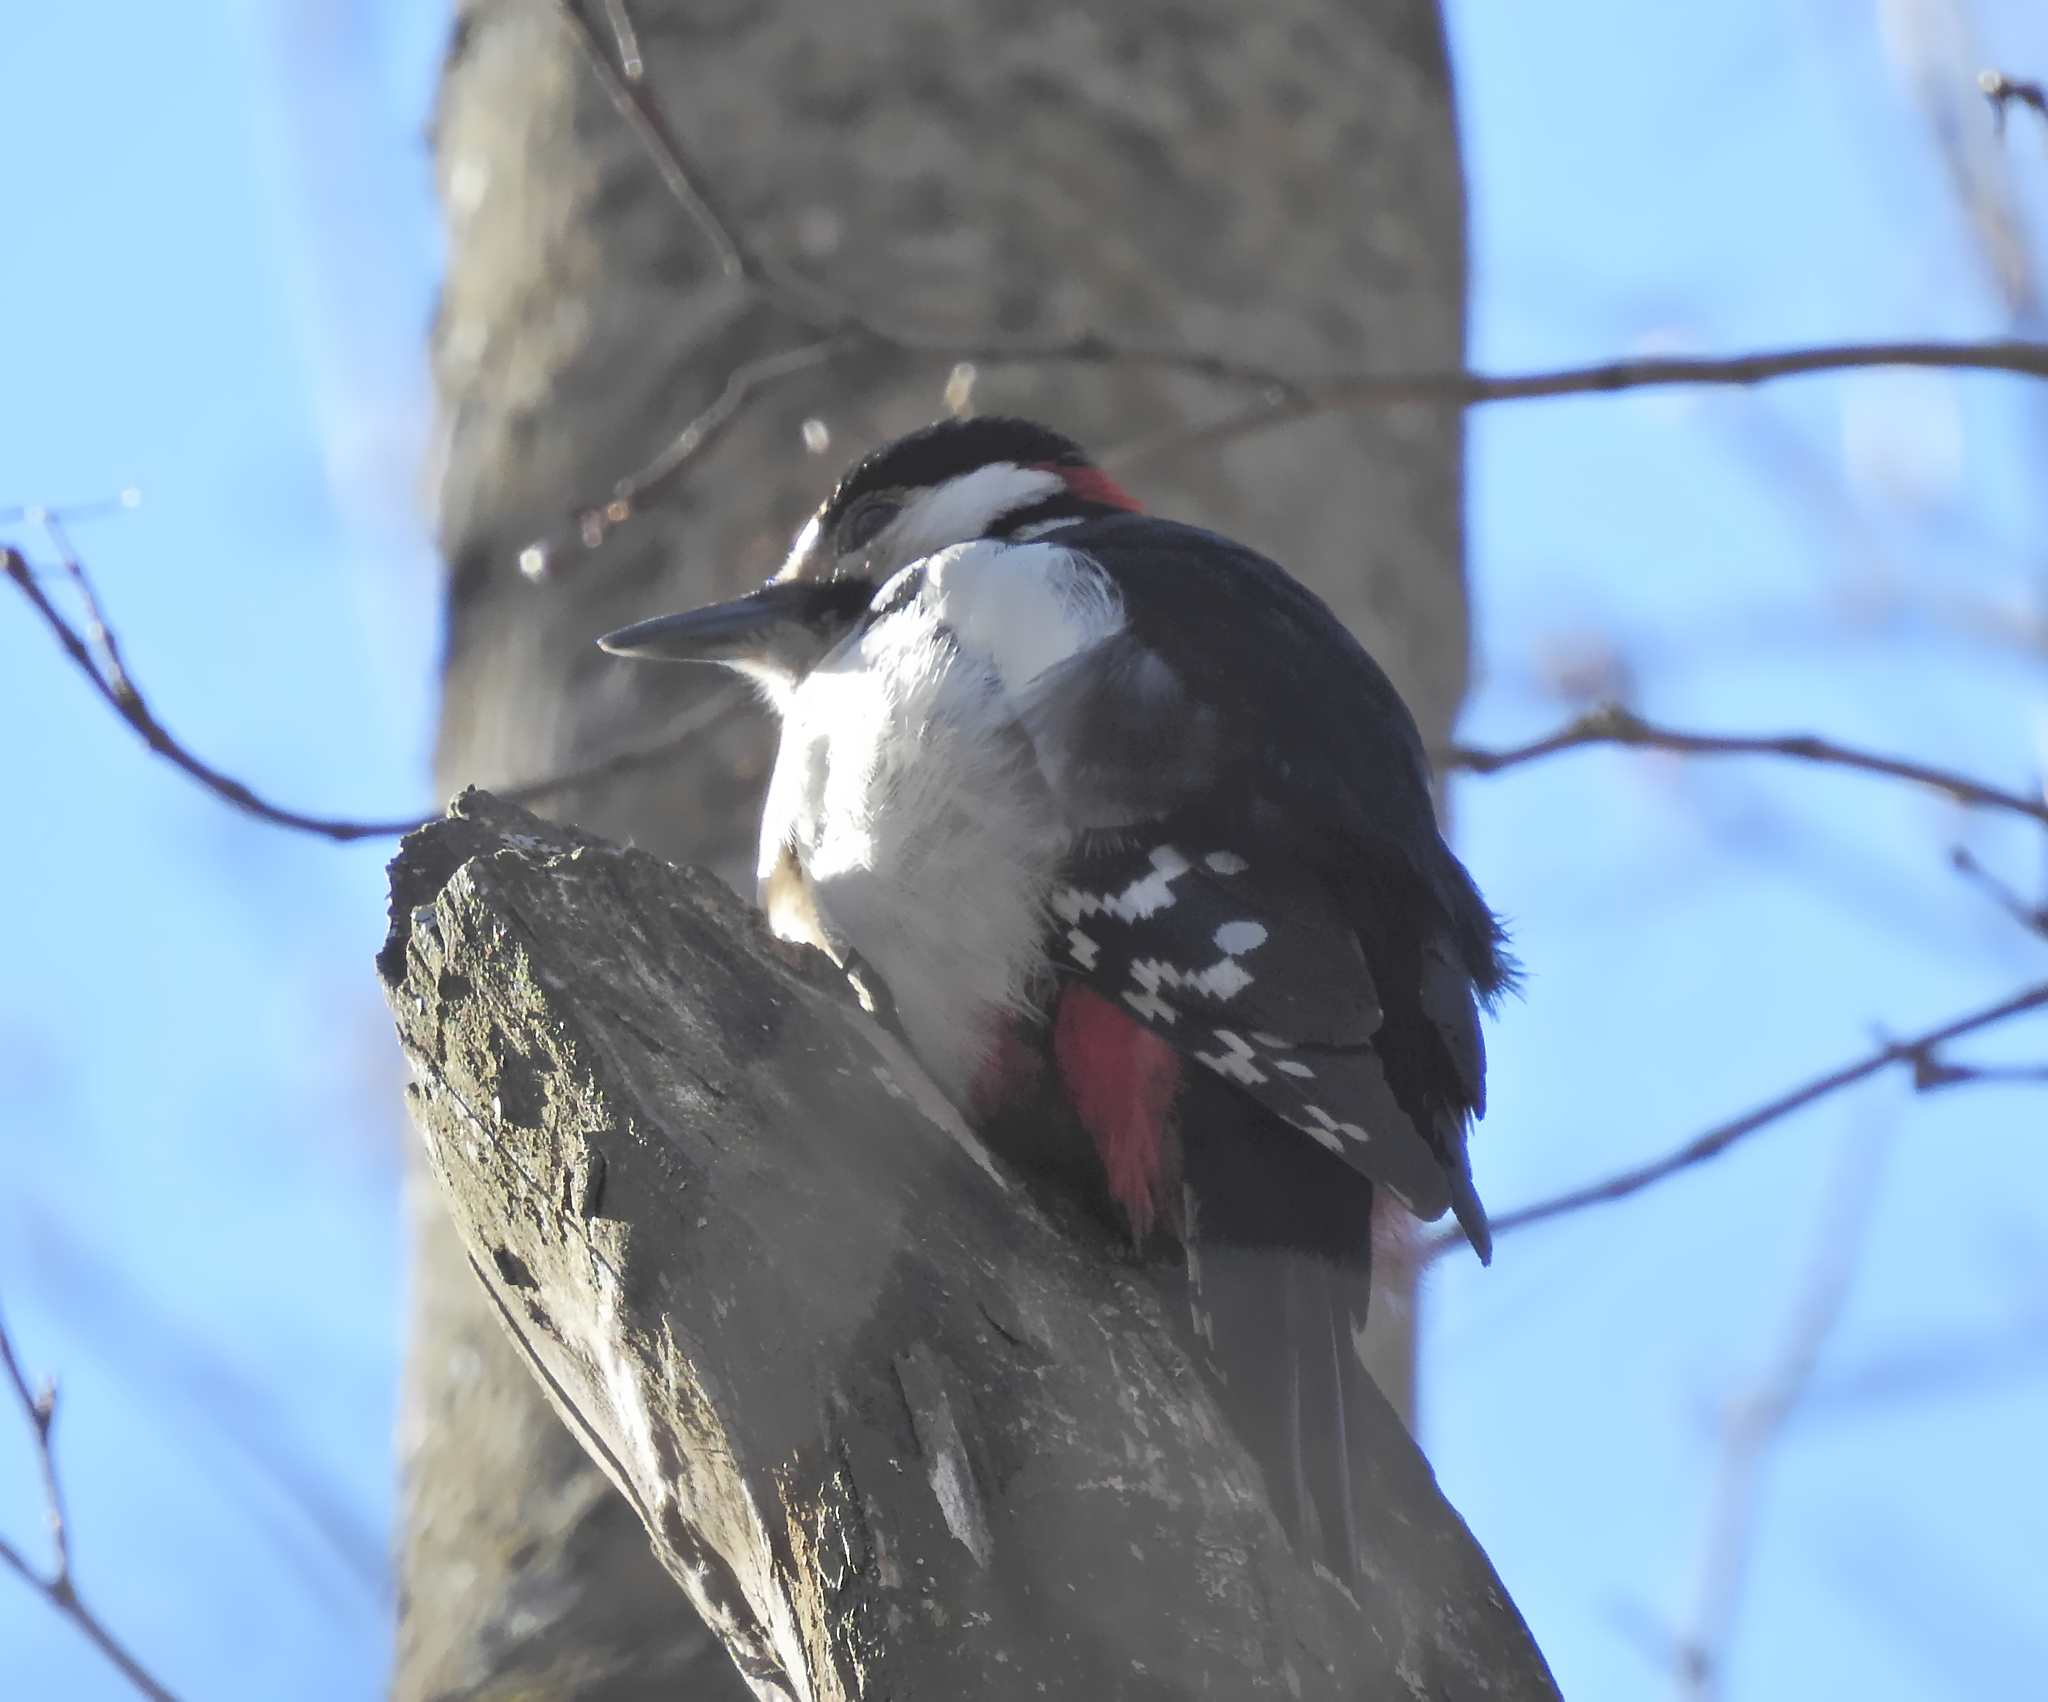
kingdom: Animalia
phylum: Chordata
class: Aves
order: Piciformes
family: Picidae
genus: Dendrocopos
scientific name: Dendrocopos major
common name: Great spotted woodpecker
